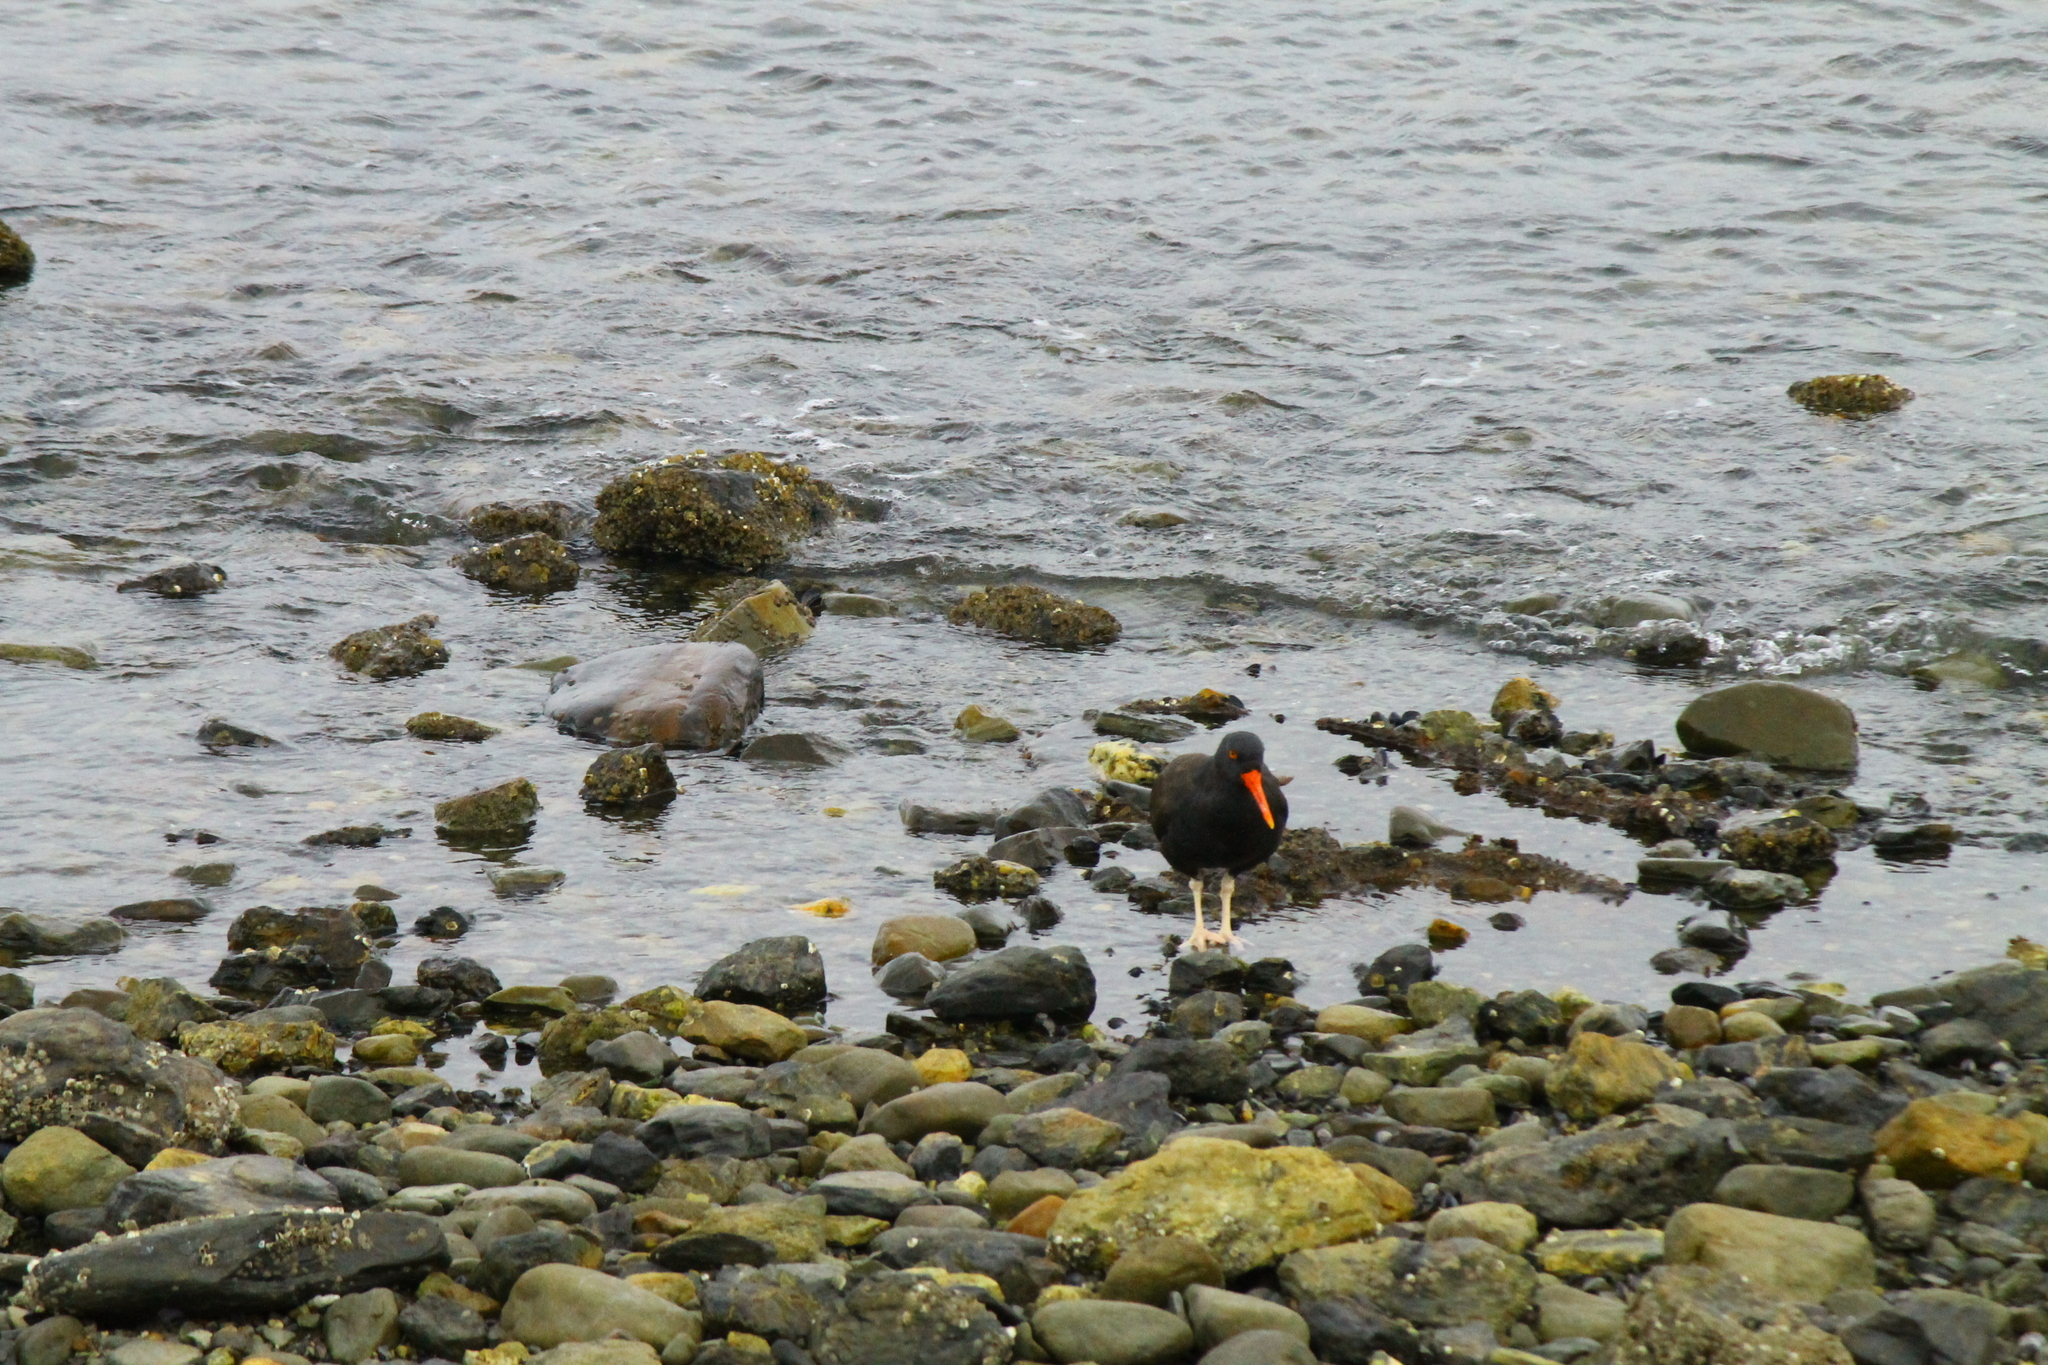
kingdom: Animalia
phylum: Chordata
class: Aves
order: Charadriiformes
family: Haematopodidae
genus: Haematopus
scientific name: Haematopus ater
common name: Blackish oystercatcher
